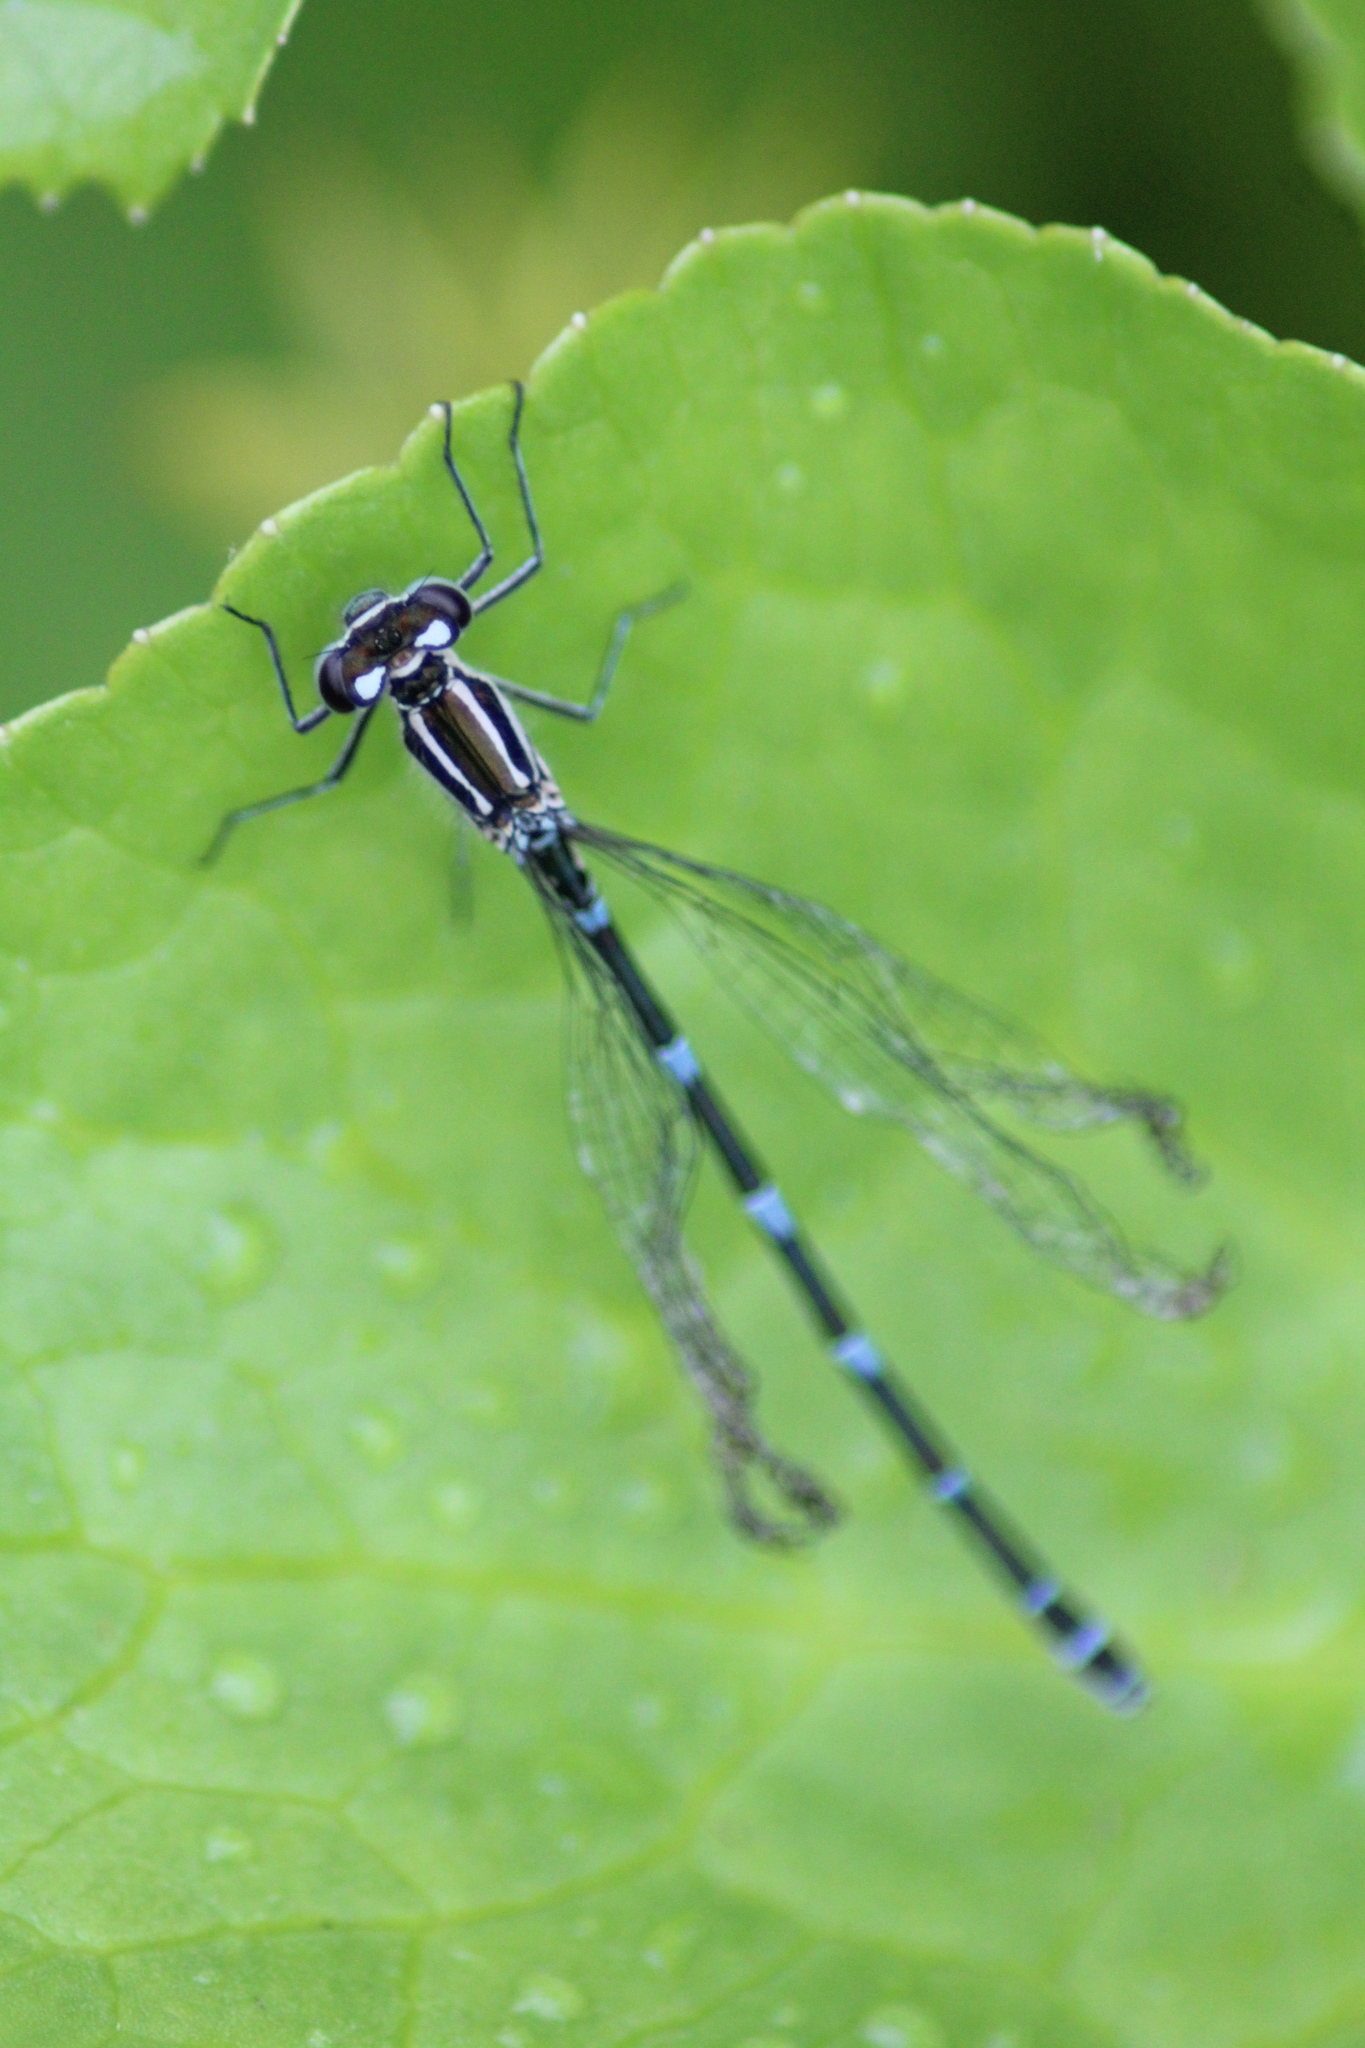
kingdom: Animalia
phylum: Arthropoda
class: Insecta
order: Odonata
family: Coenagrionidae
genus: Coenagrion
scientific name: Coenagrion puella
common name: Azure damselfly
